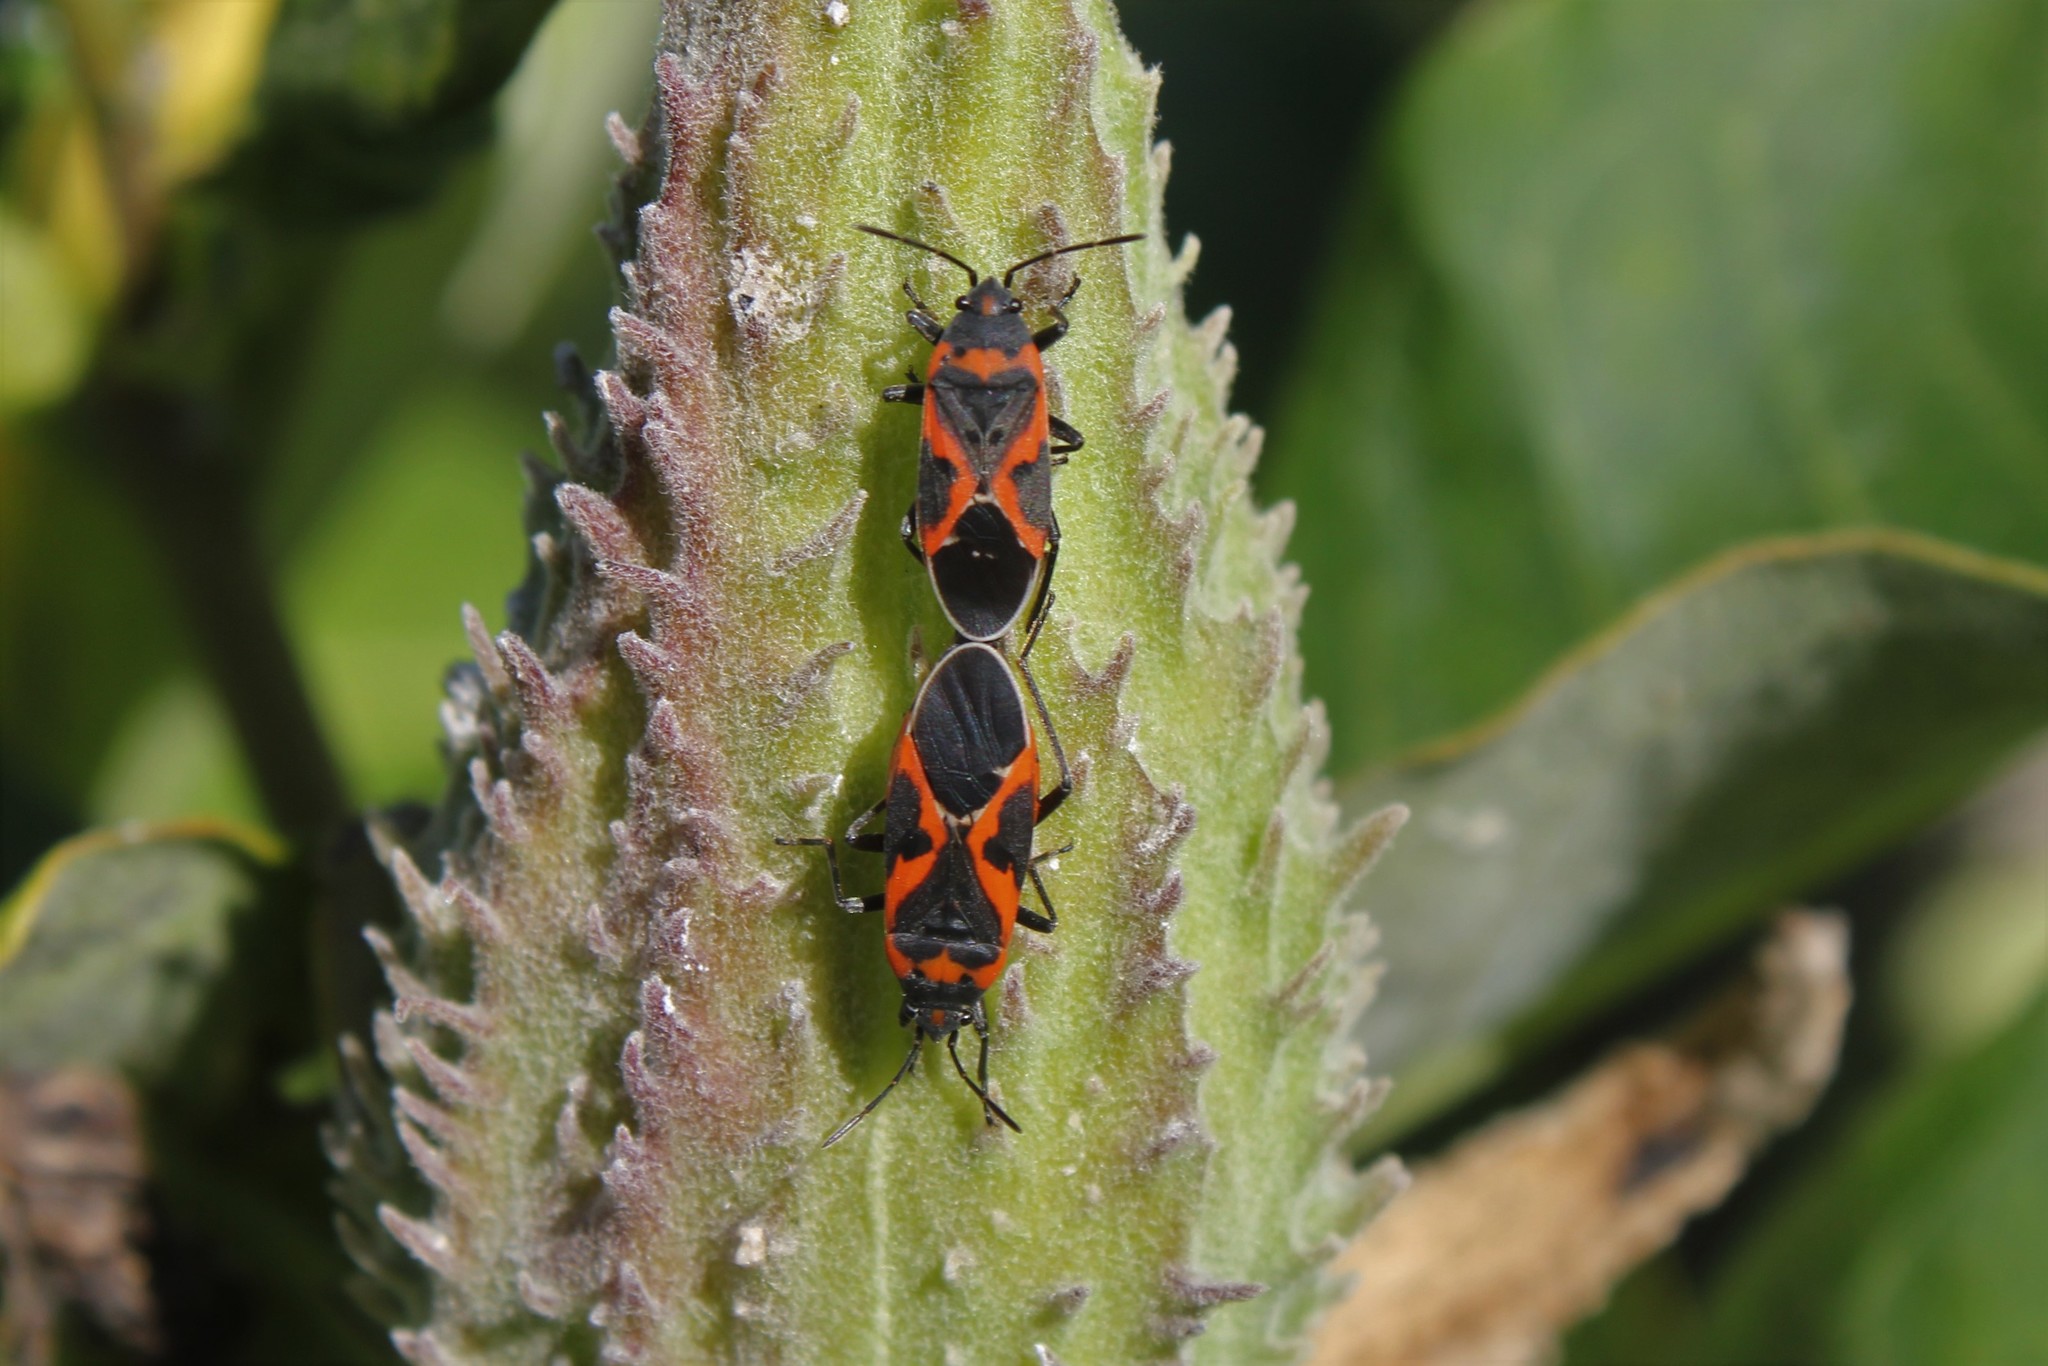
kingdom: Animalia
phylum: Arthropoda
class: Insecta
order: Hemiptera
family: Lygaeidae
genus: Lygaeus
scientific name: Lygaeus kalmii
